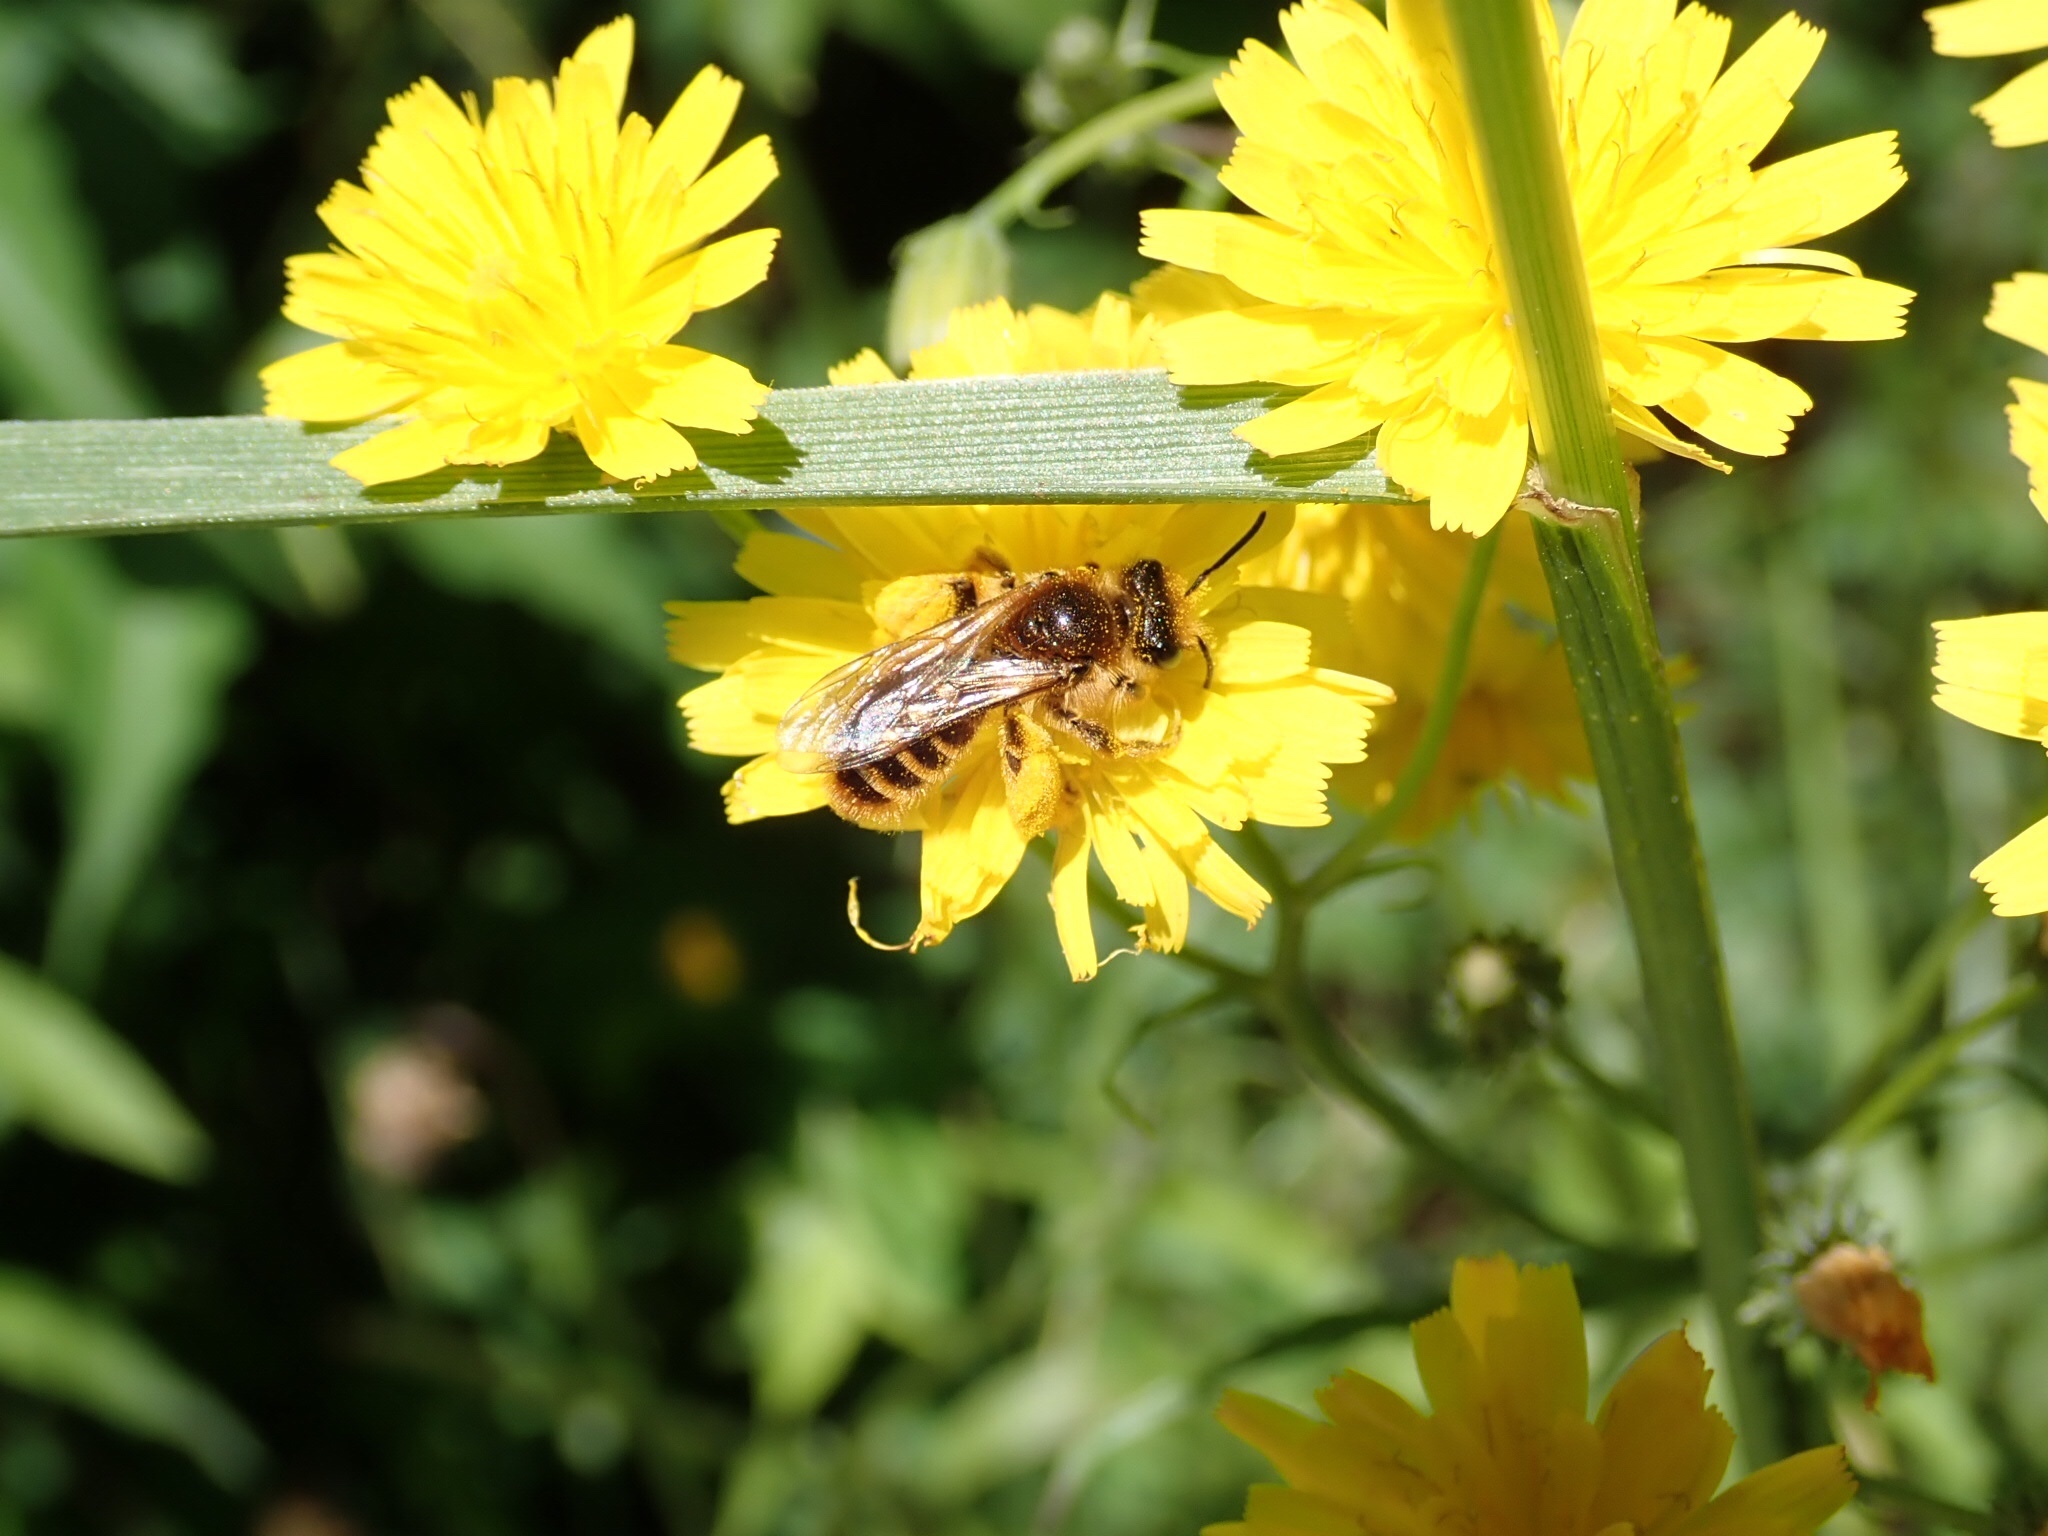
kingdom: Animalia
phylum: Arthropoda
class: Insecta
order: Hymenoptera
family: Colletidae
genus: Leioproctus
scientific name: Leioproctus fulvescens
